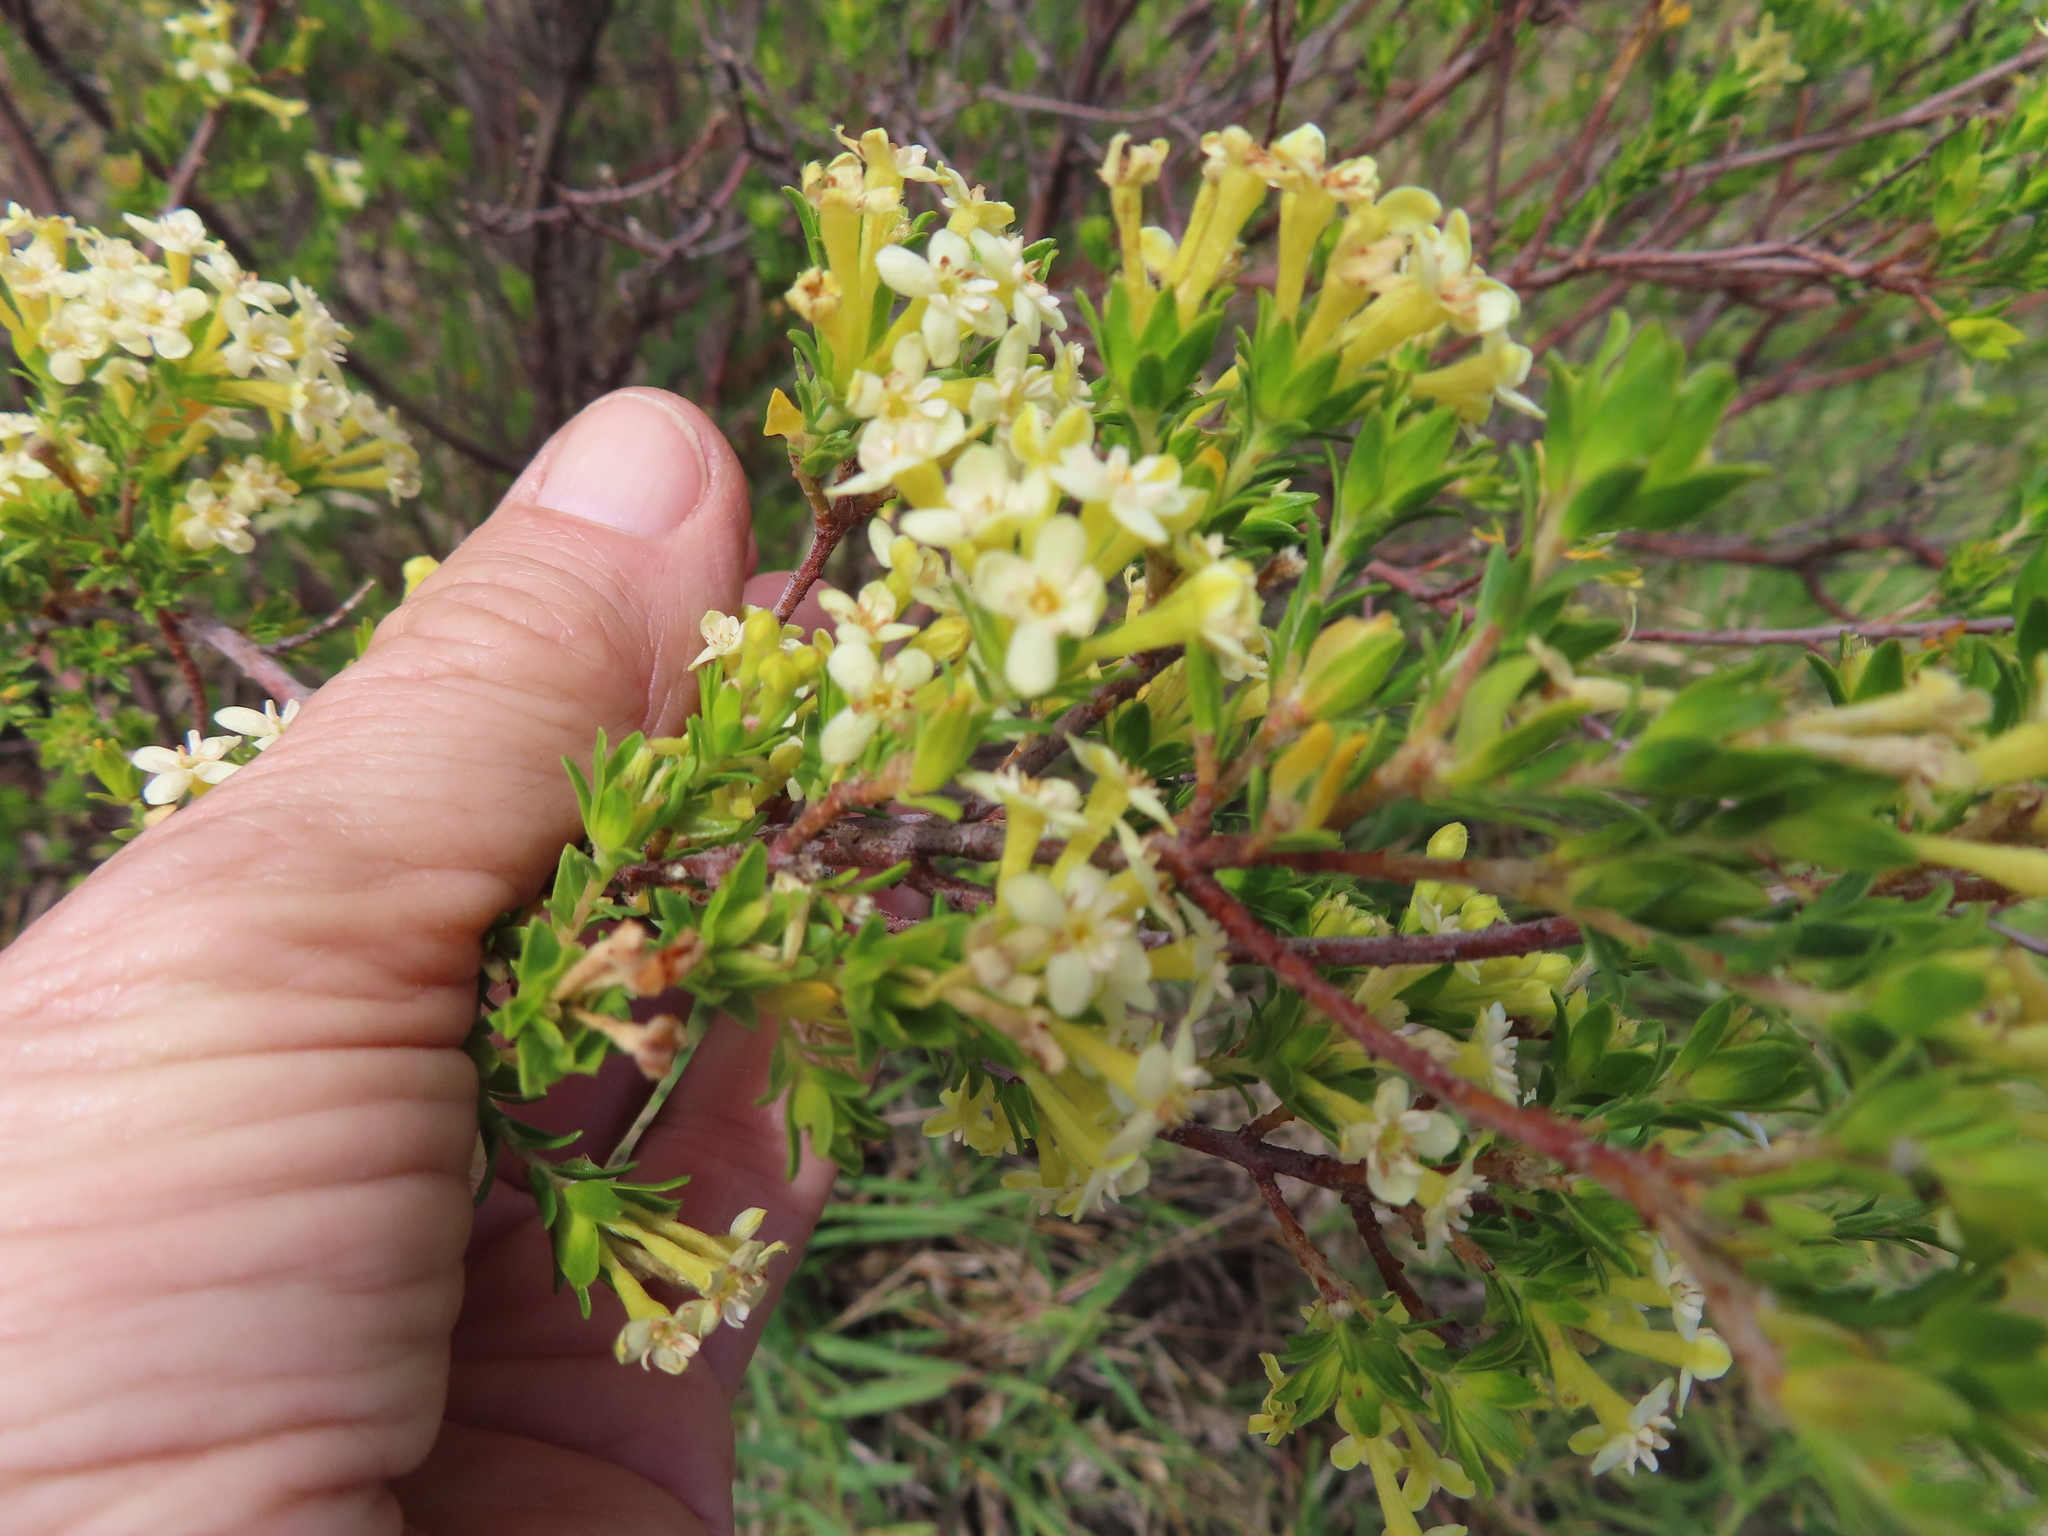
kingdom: Plantae
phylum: Tracheophyta
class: Magnoliopsida
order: Malvales
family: Thymelaeaceae
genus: Gnidia
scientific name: Gnidia squarrosa
